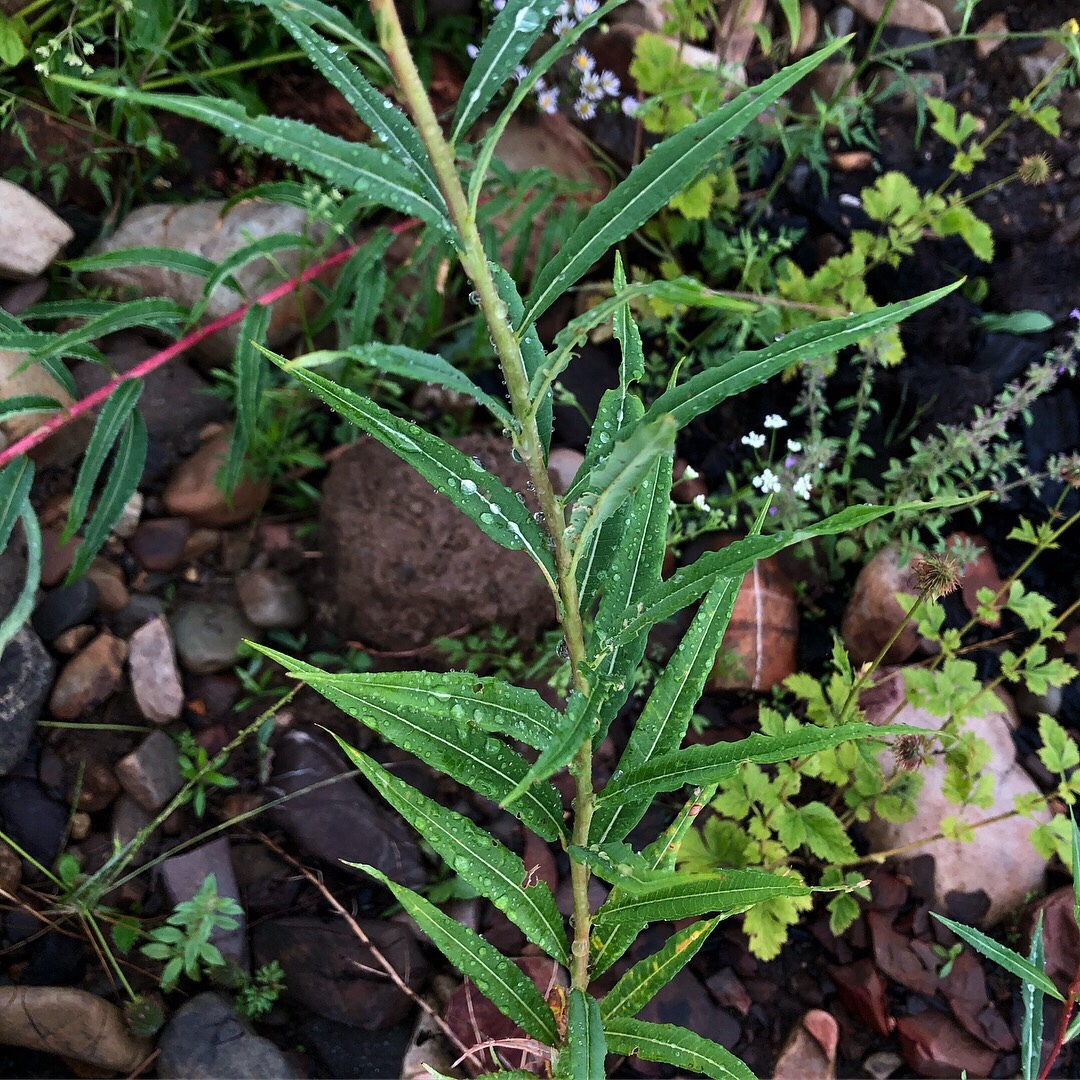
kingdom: Plantae
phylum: Tracheophyta
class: Magnoliopsida
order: Myrtales
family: Onagraceae
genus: Chamaenerion
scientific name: Chamaenerion angustifolium
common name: Fireweed
